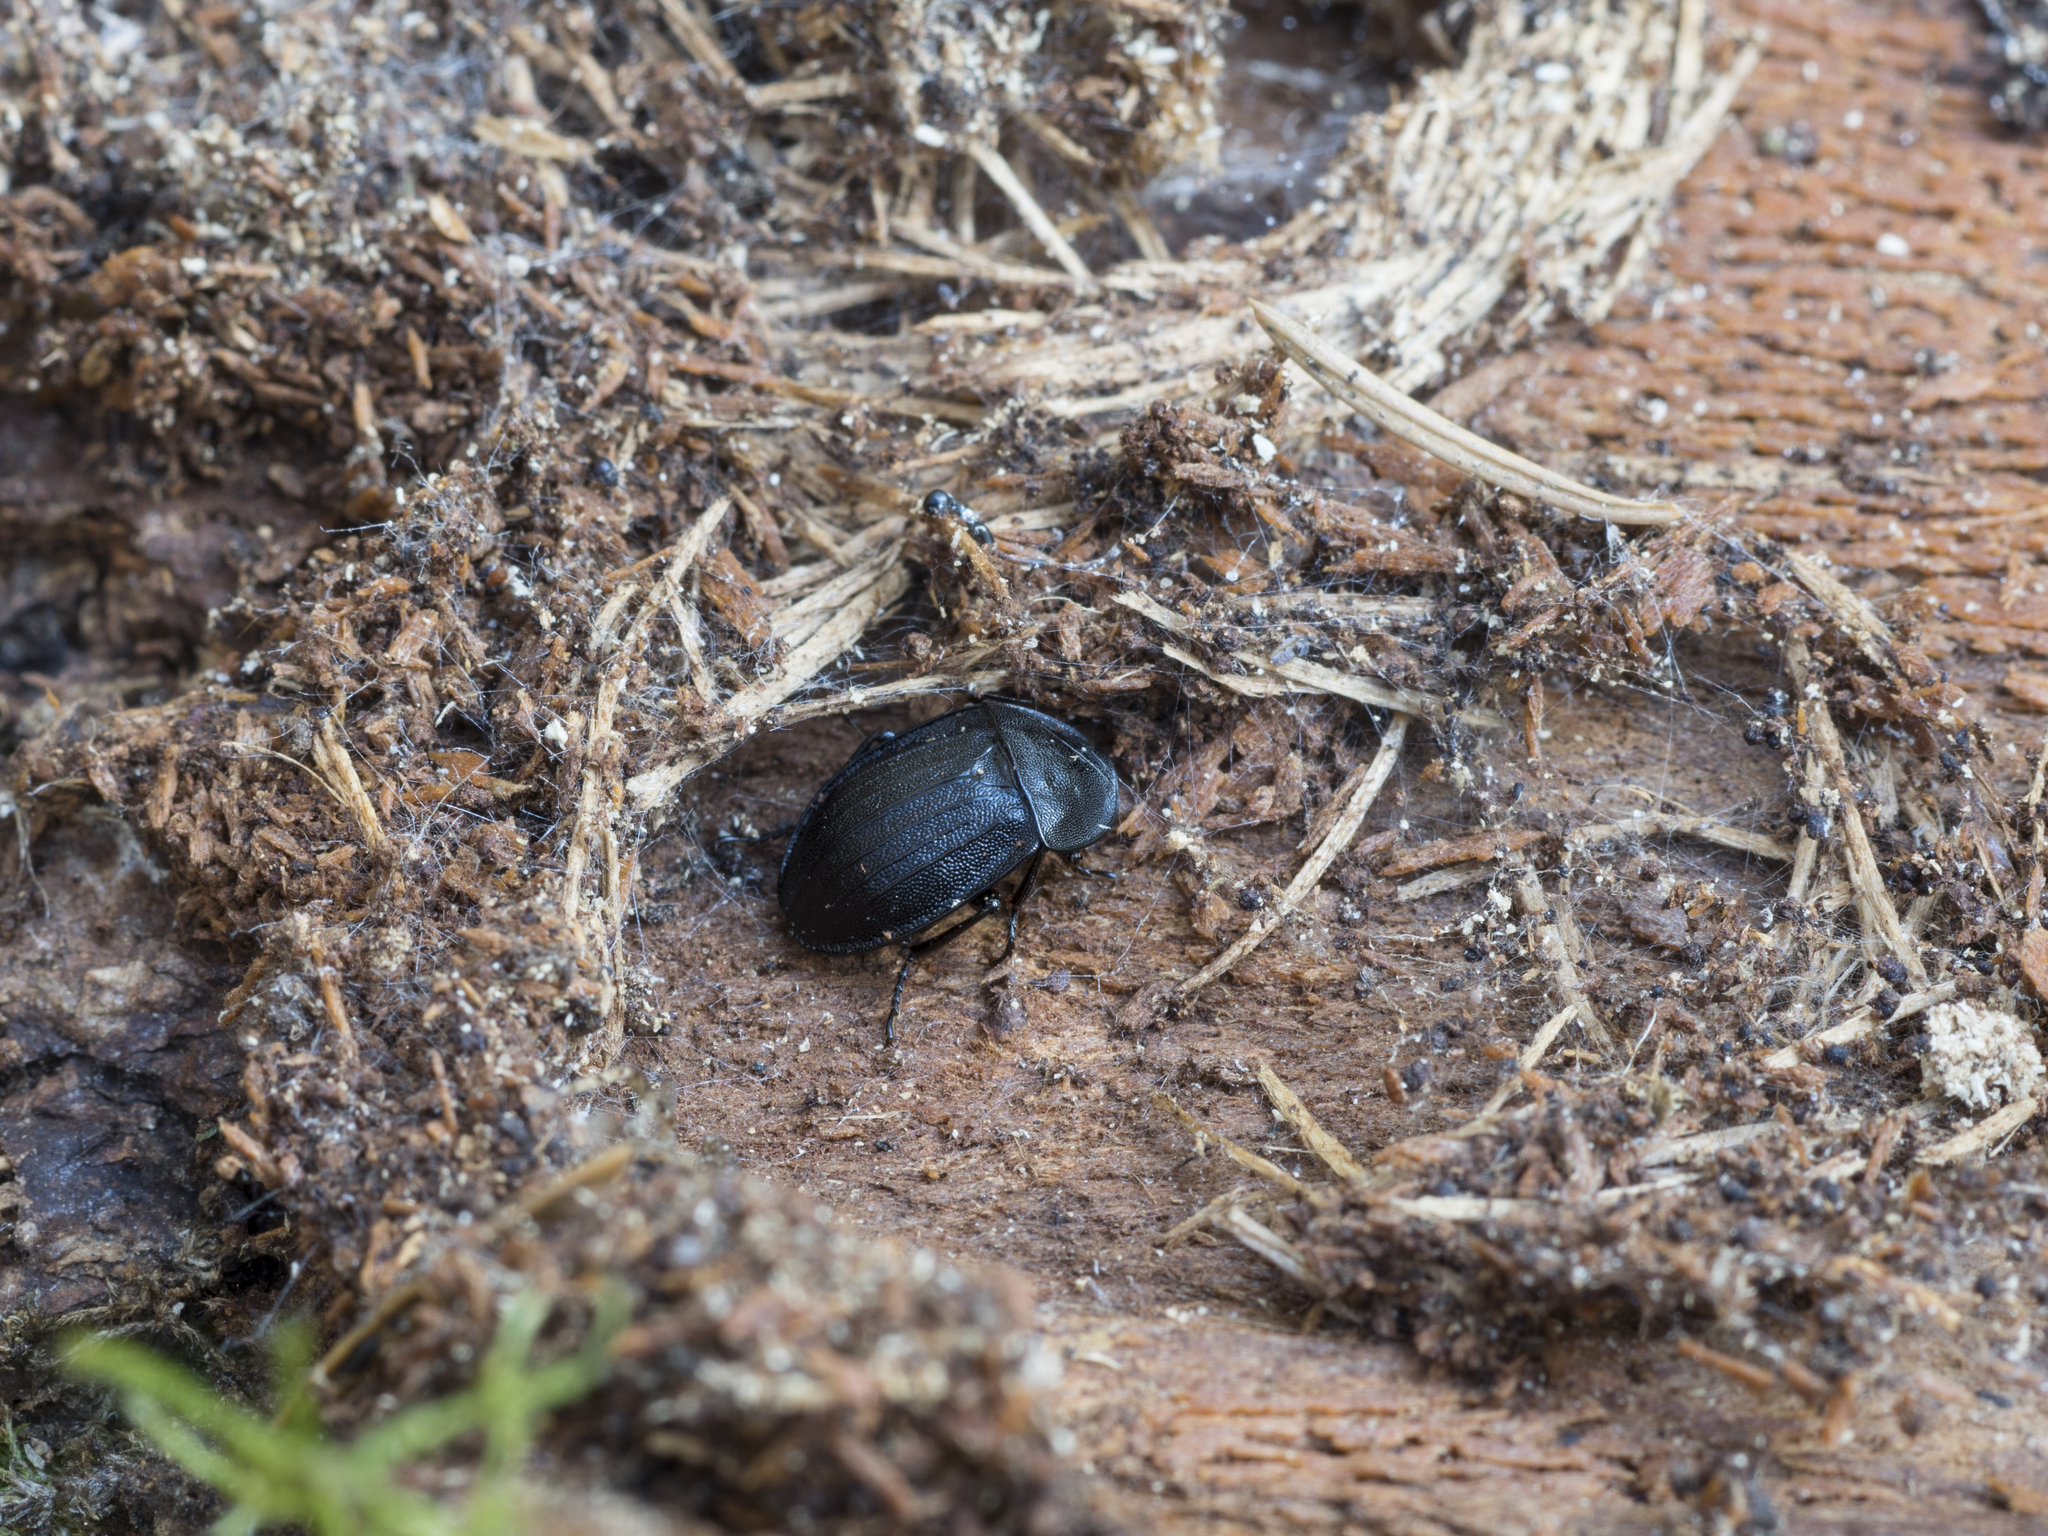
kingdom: Animalia
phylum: Arthropoda
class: Insecta
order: Coleoptera
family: Staphylinidae
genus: Silpha
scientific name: Silpha atrata
